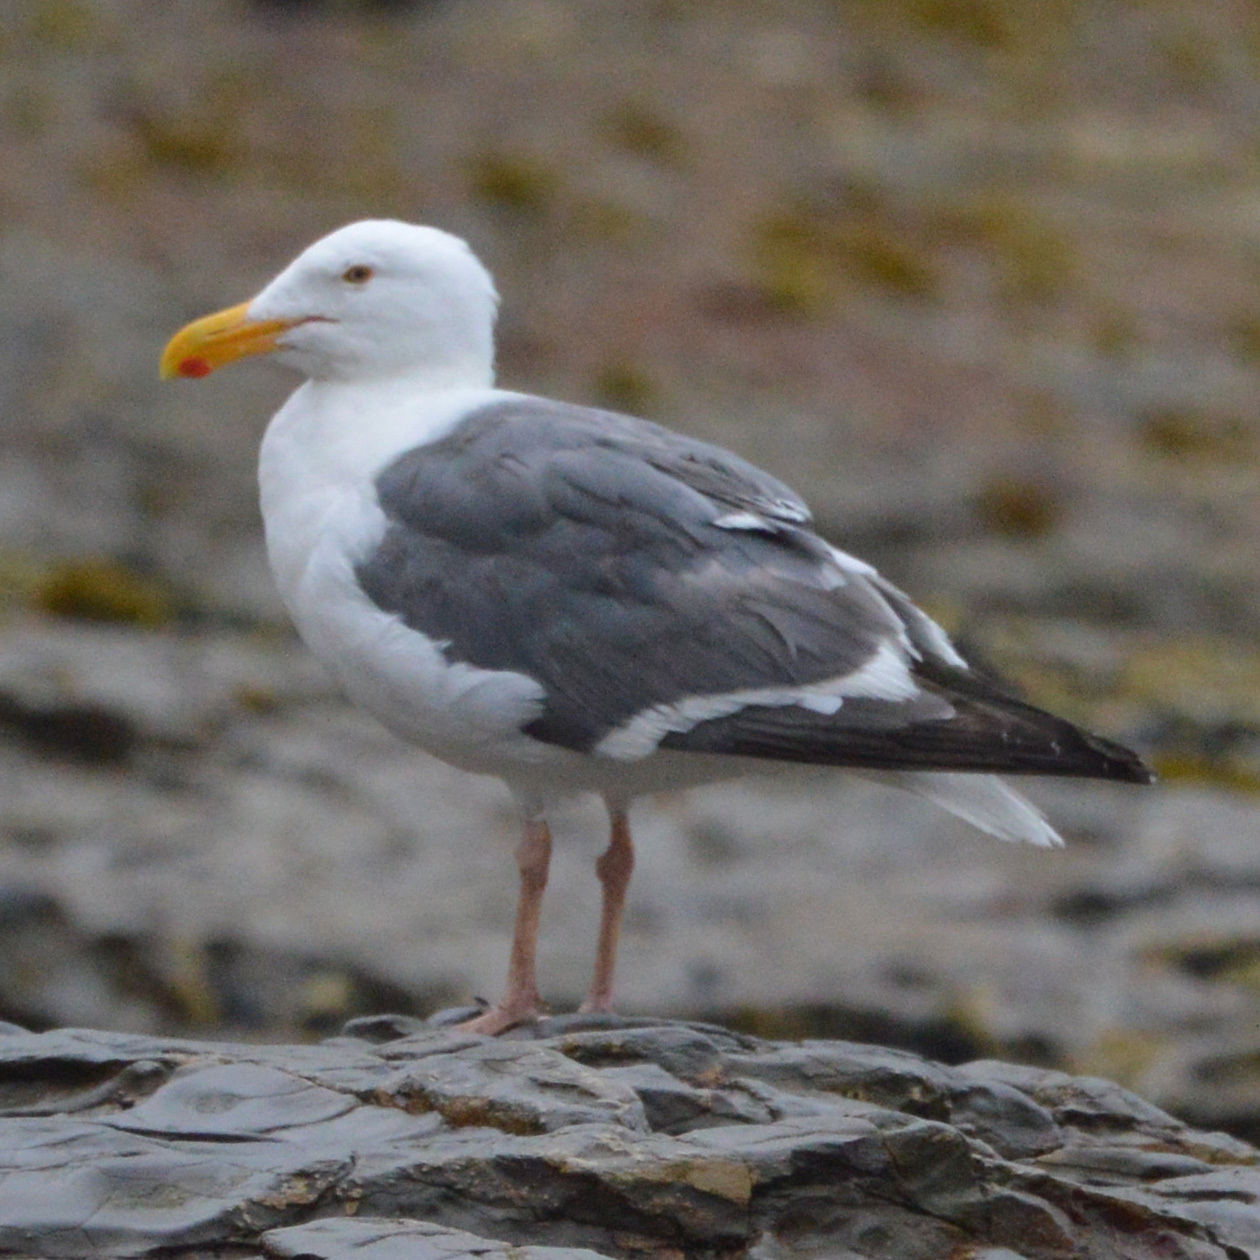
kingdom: Animalia
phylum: Chordata
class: Aves
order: Charadriiformes
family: Laridae
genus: Larus
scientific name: Larus occidentalis
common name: Western gull
